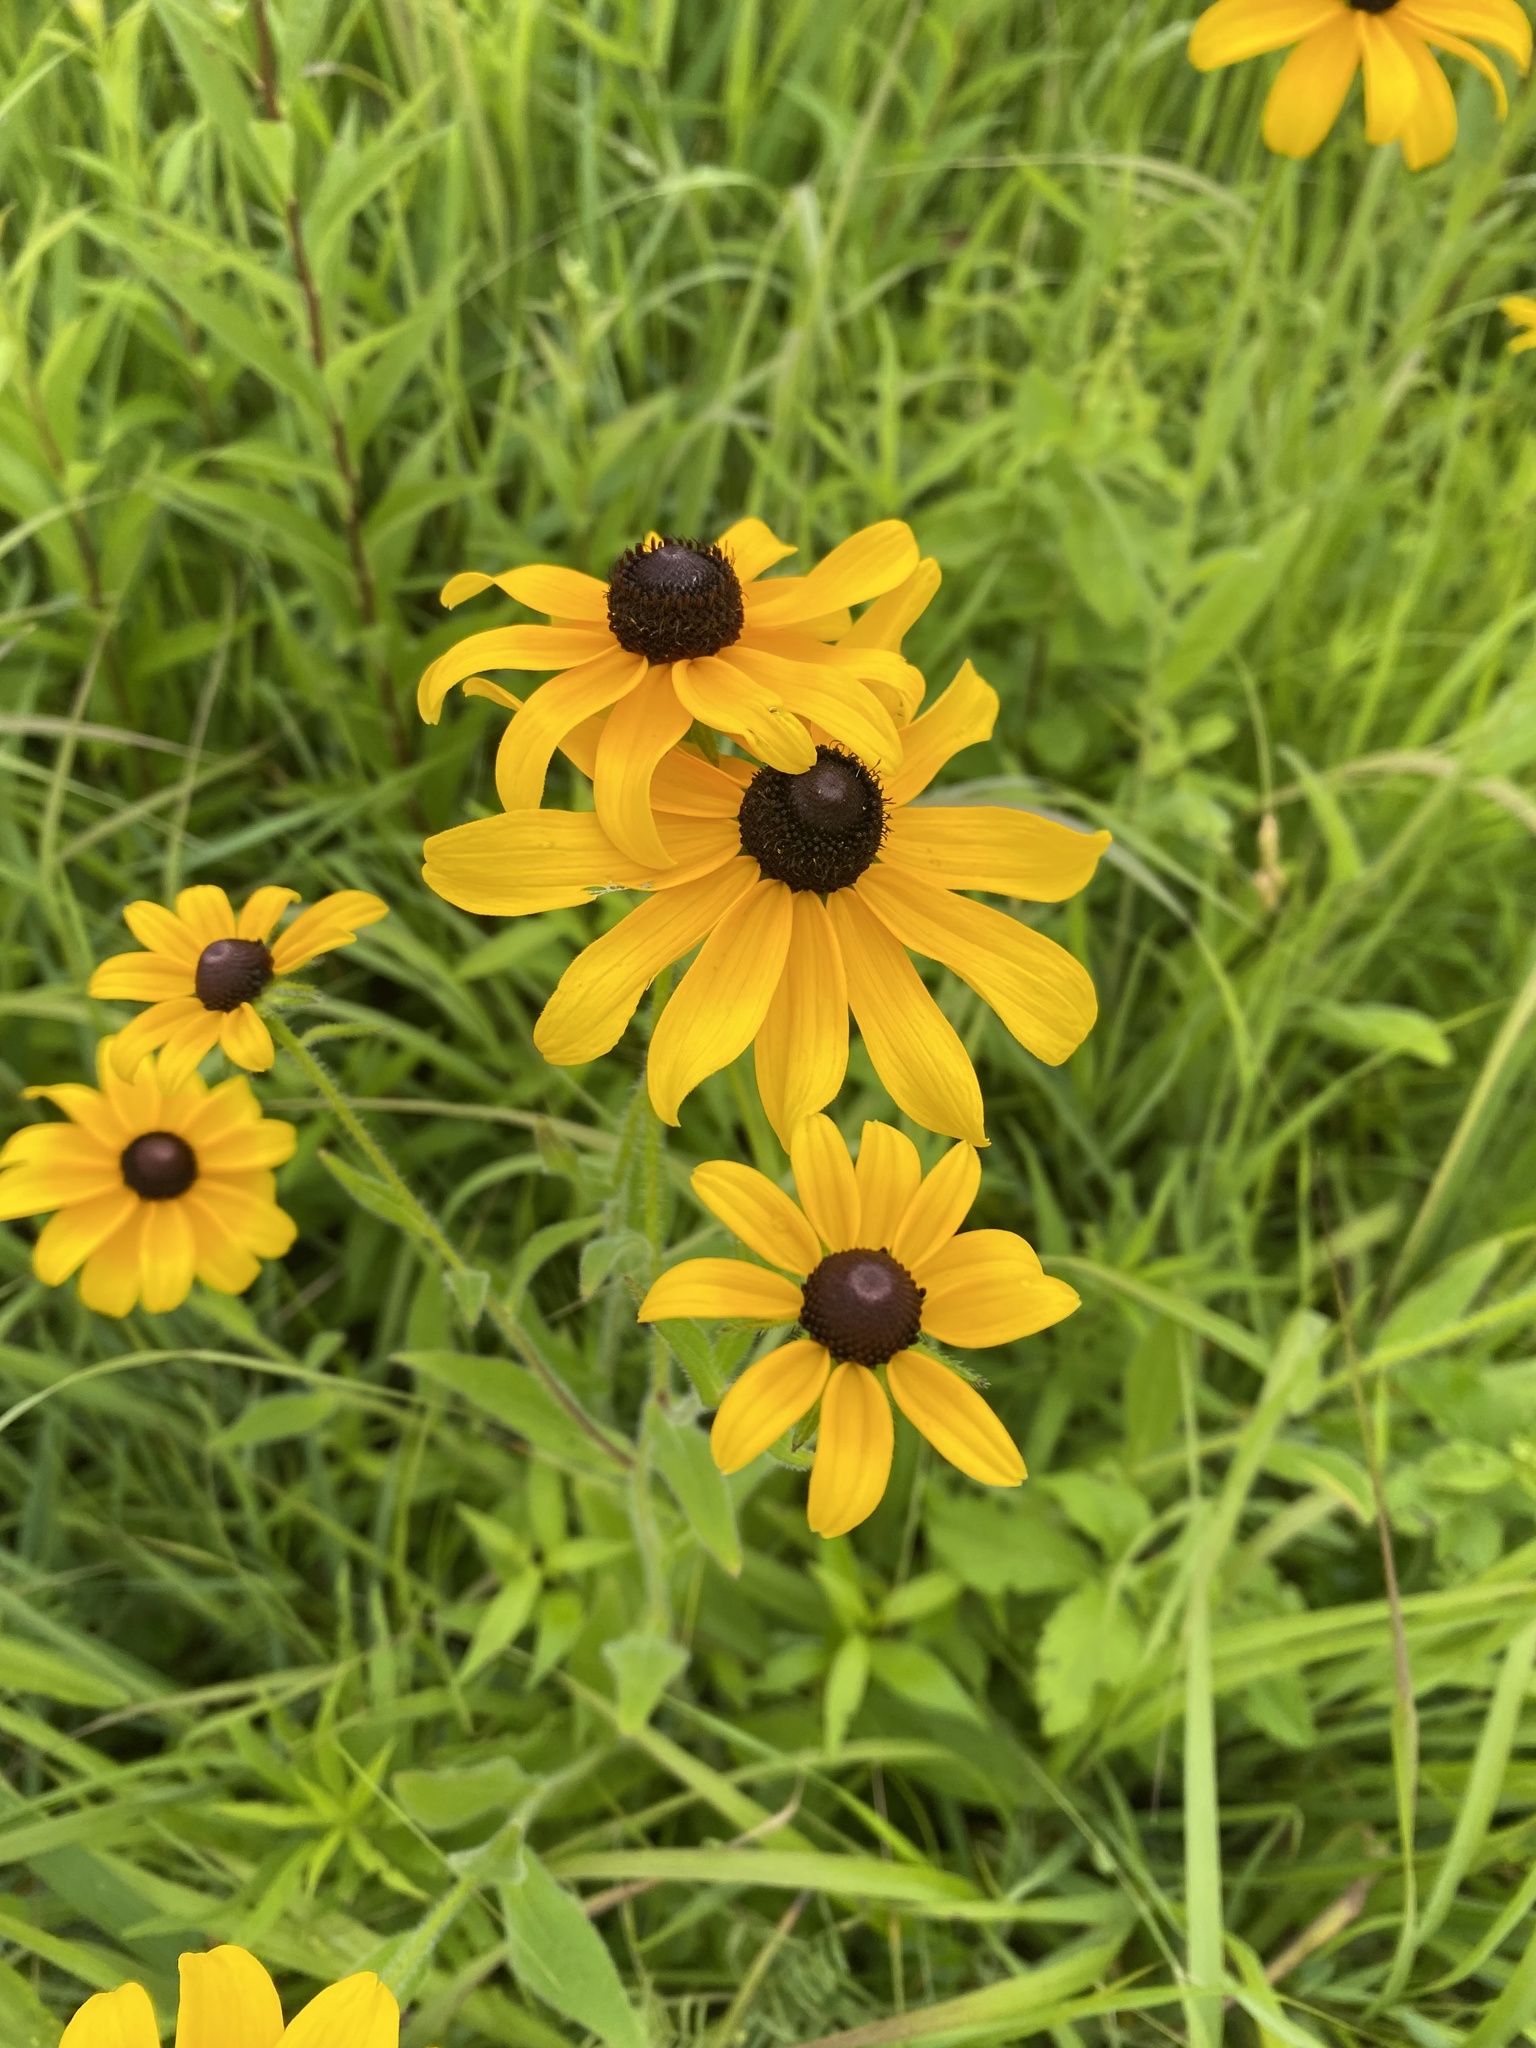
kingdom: Plantae
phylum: Tracheophyta
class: Magnoliopsida
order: Asterales
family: Asteraceae
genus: Rudbeckia
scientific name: Rudbeckia hirta
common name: Black-eyed-susan
